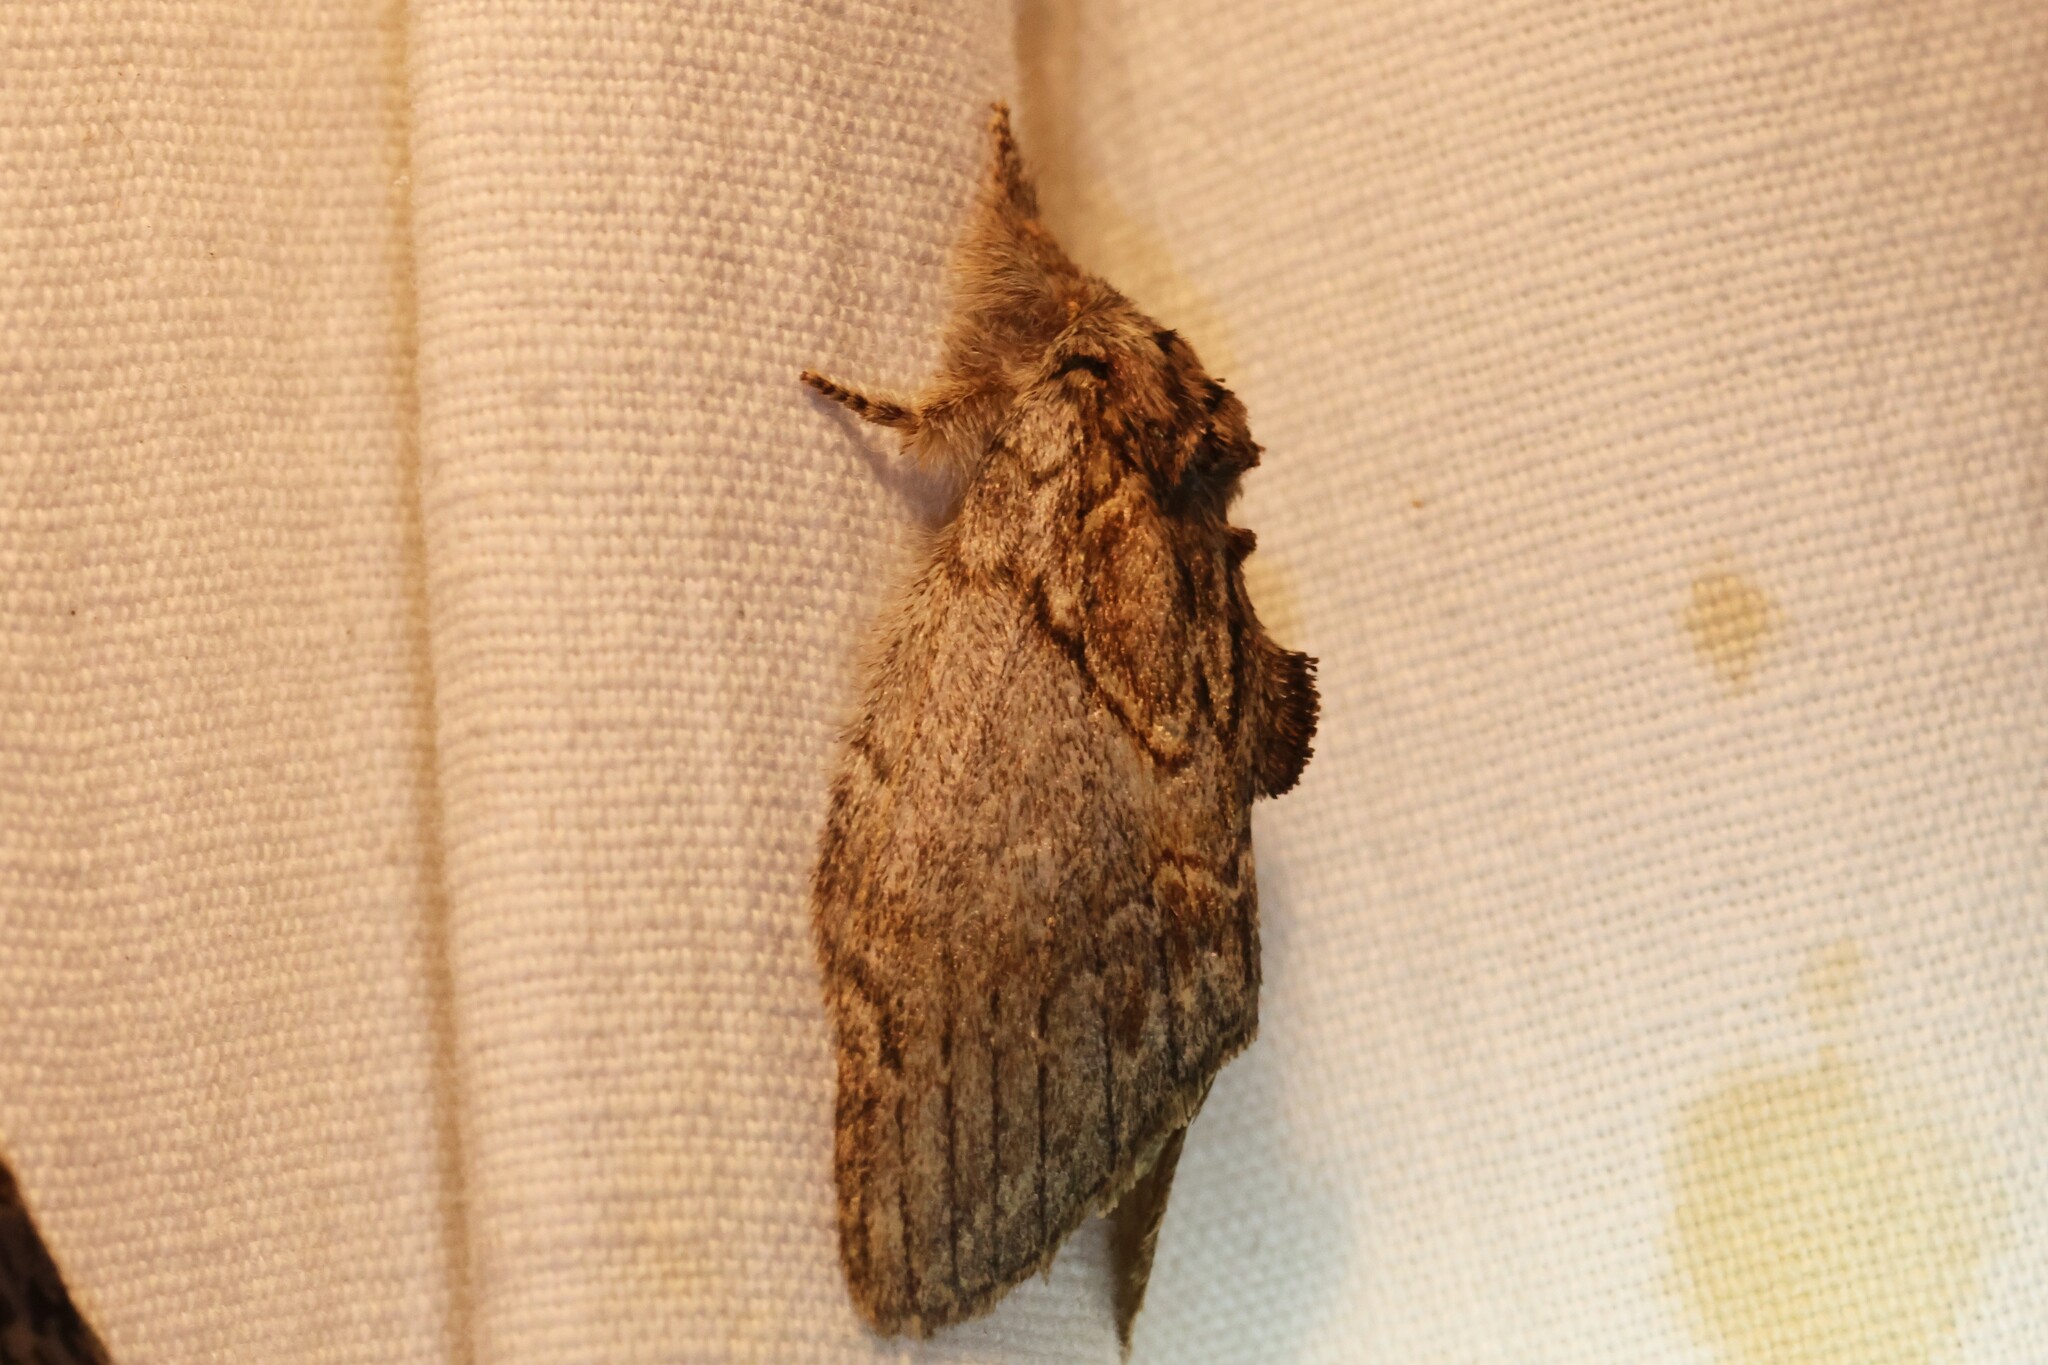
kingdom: Animalia
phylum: Arthropoda
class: Insecta
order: Lepidoptera
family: Notodontidae
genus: Peridea
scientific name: Peridea basitriens
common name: Oval-based prominent
